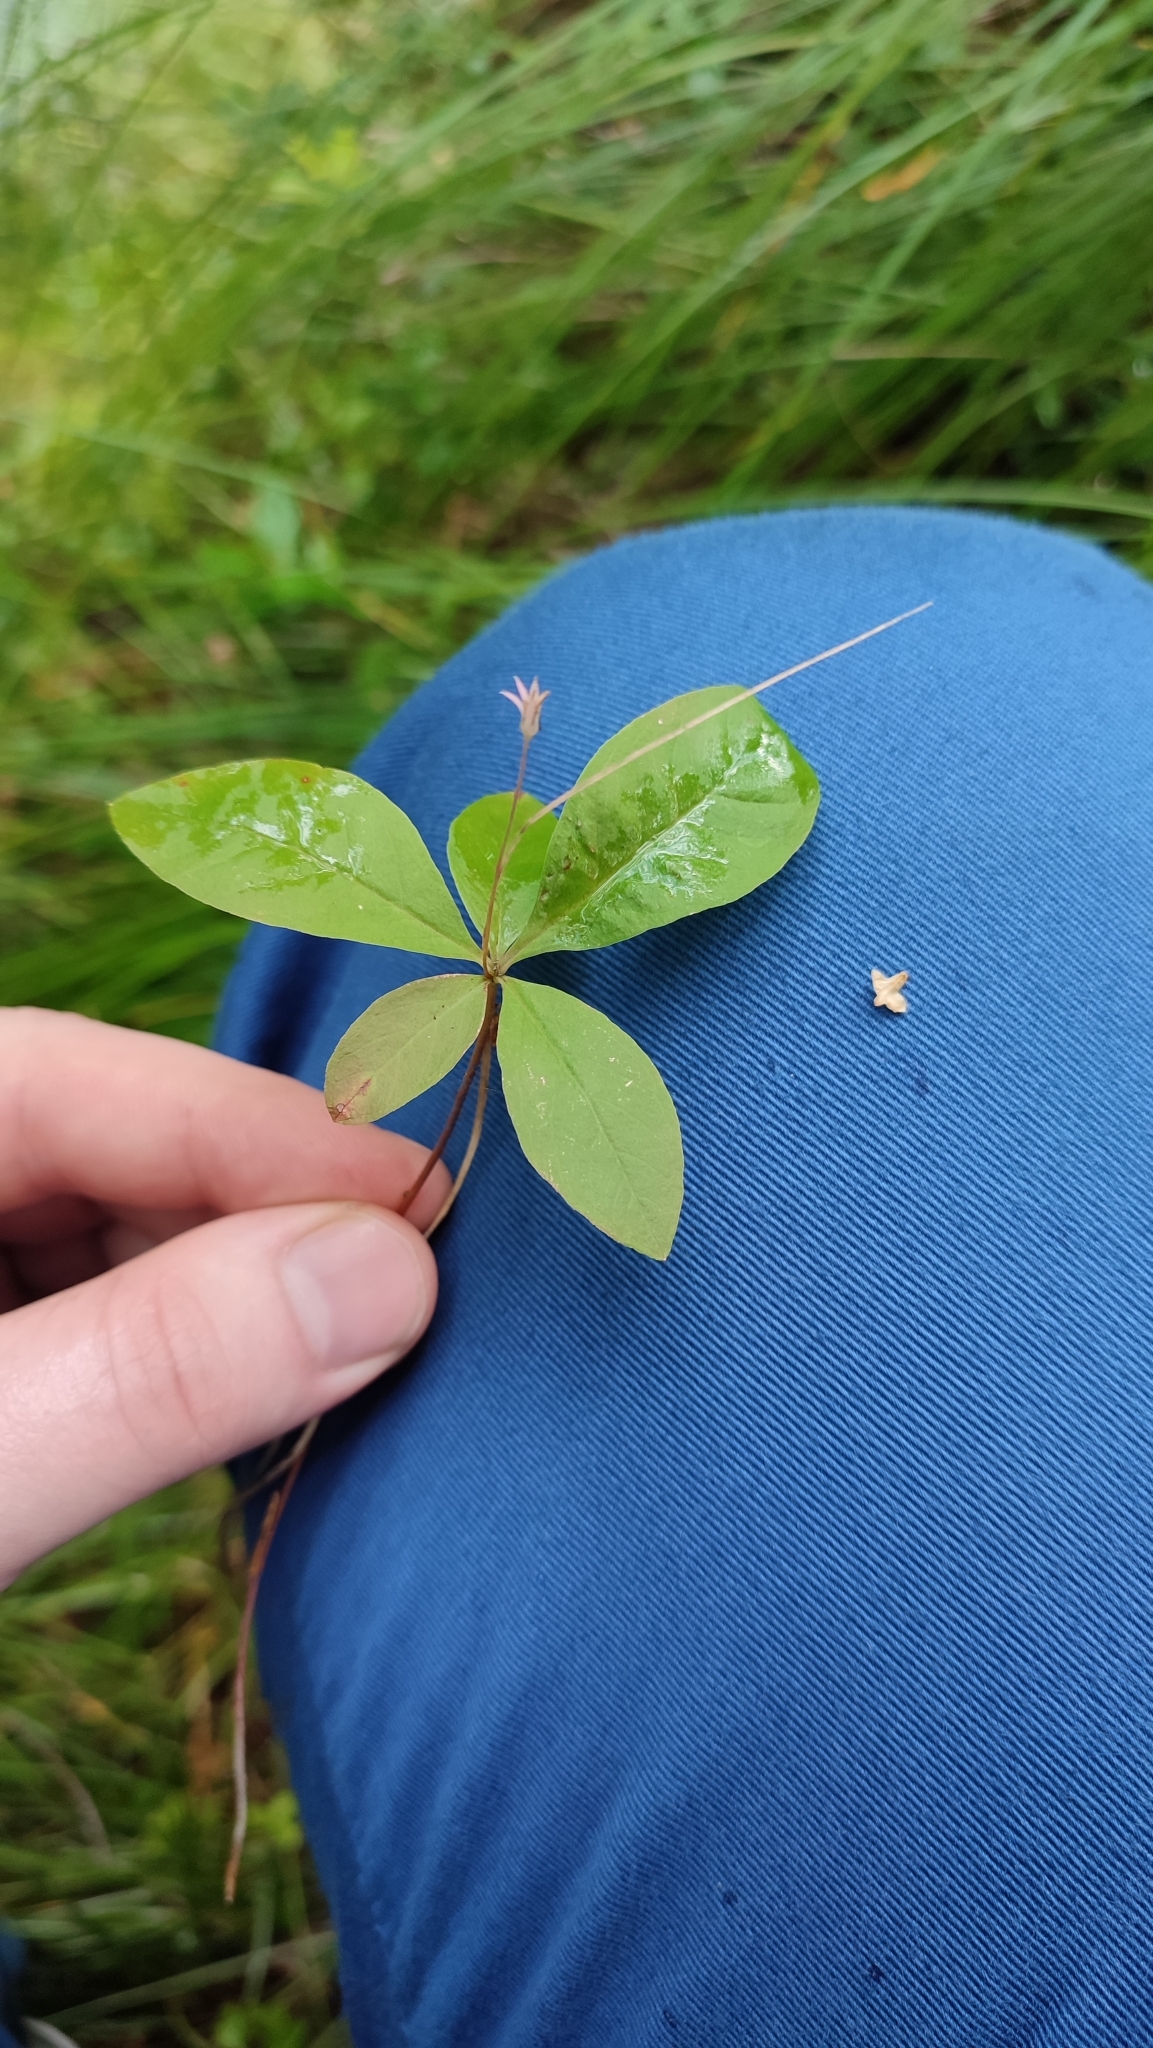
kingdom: Plantae
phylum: Tracheophyta
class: Magnoliopsida
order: Ericales
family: Primulaceae
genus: Lysimachia
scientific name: Lysimachia europaea
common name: Arctic starflower
